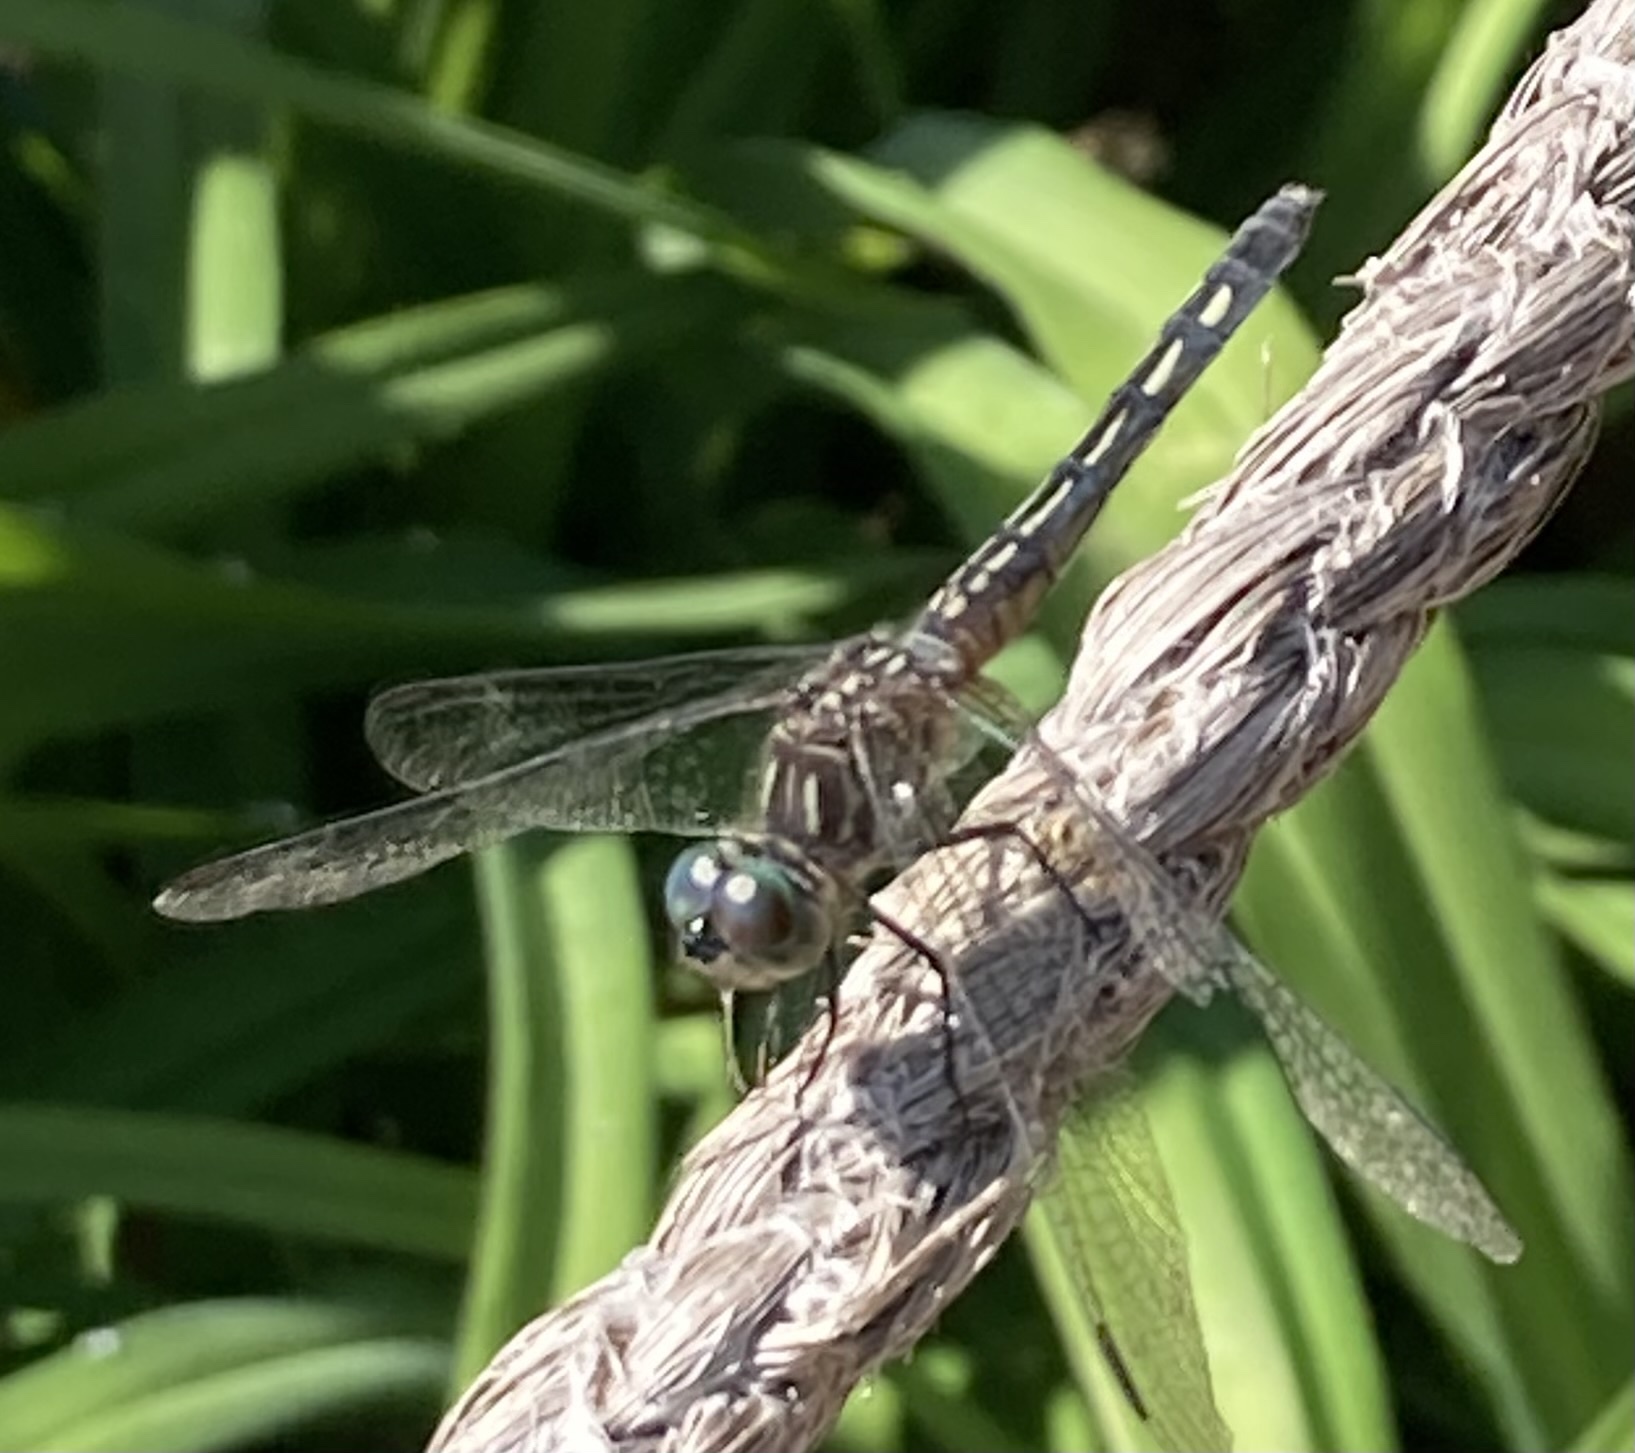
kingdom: Animalia
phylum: Arthropoda
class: Insecta
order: Odonata
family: Libellulidae
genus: Pachydiplax
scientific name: Pachydiplax longipennis
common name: Blue dasher
